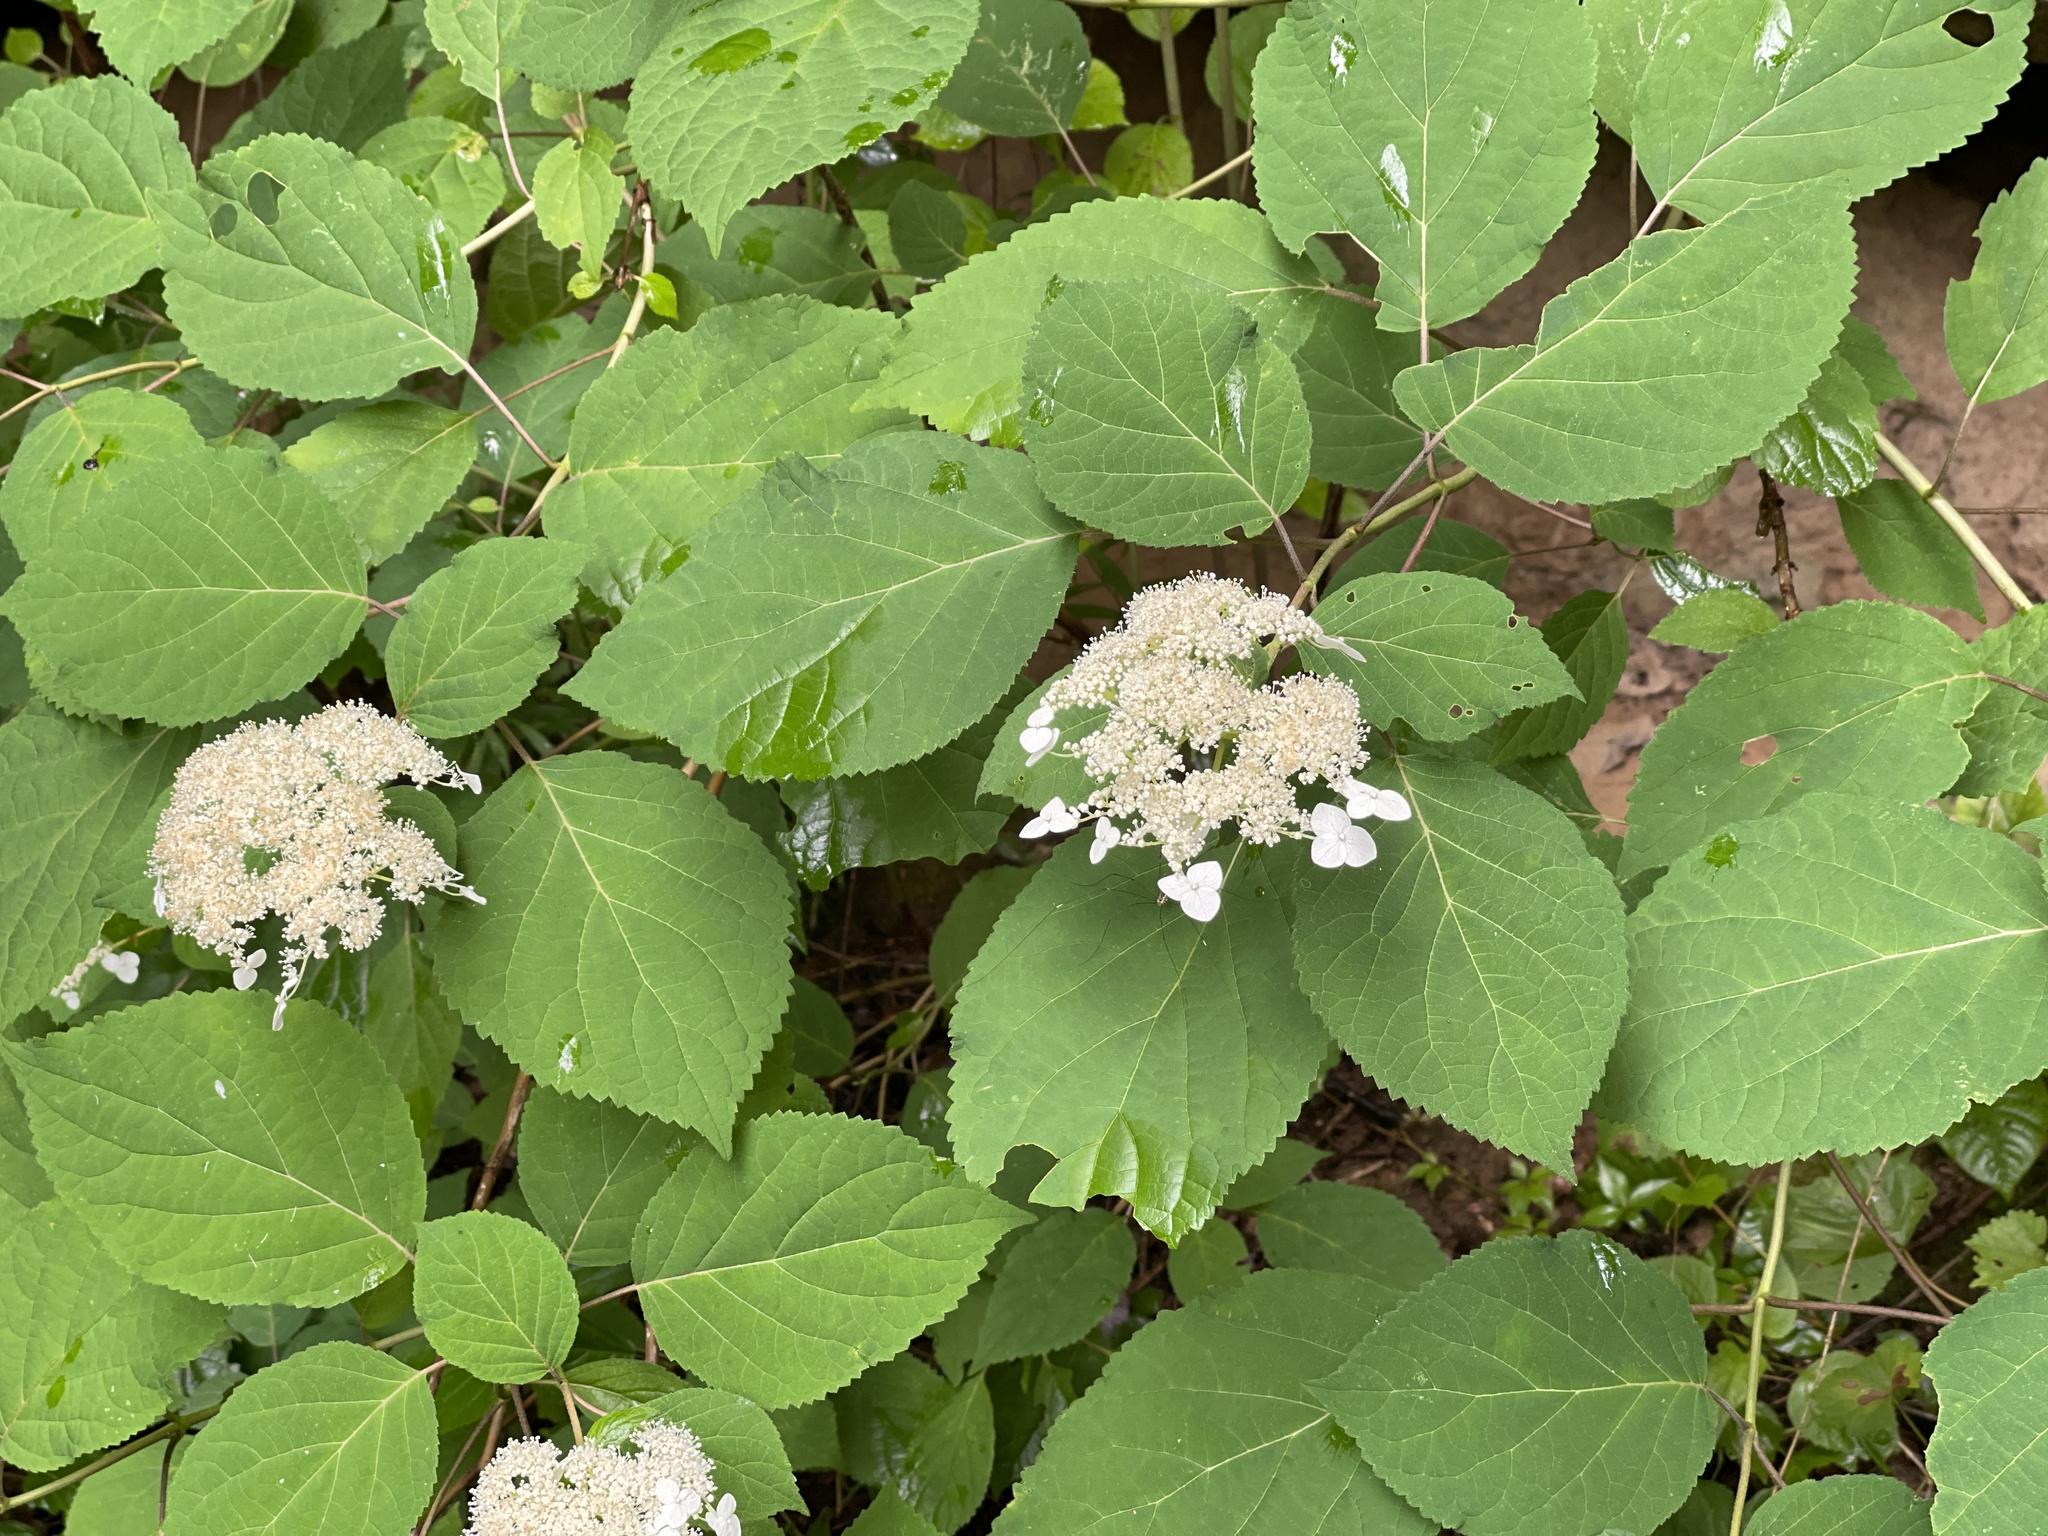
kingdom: Plantae
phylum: Tracheophyta
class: Magnoliopsida
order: Cornales
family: Hydrangeaceae
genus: Hydrangea
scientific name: Hydrangea arborescens
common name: Sevenbark
